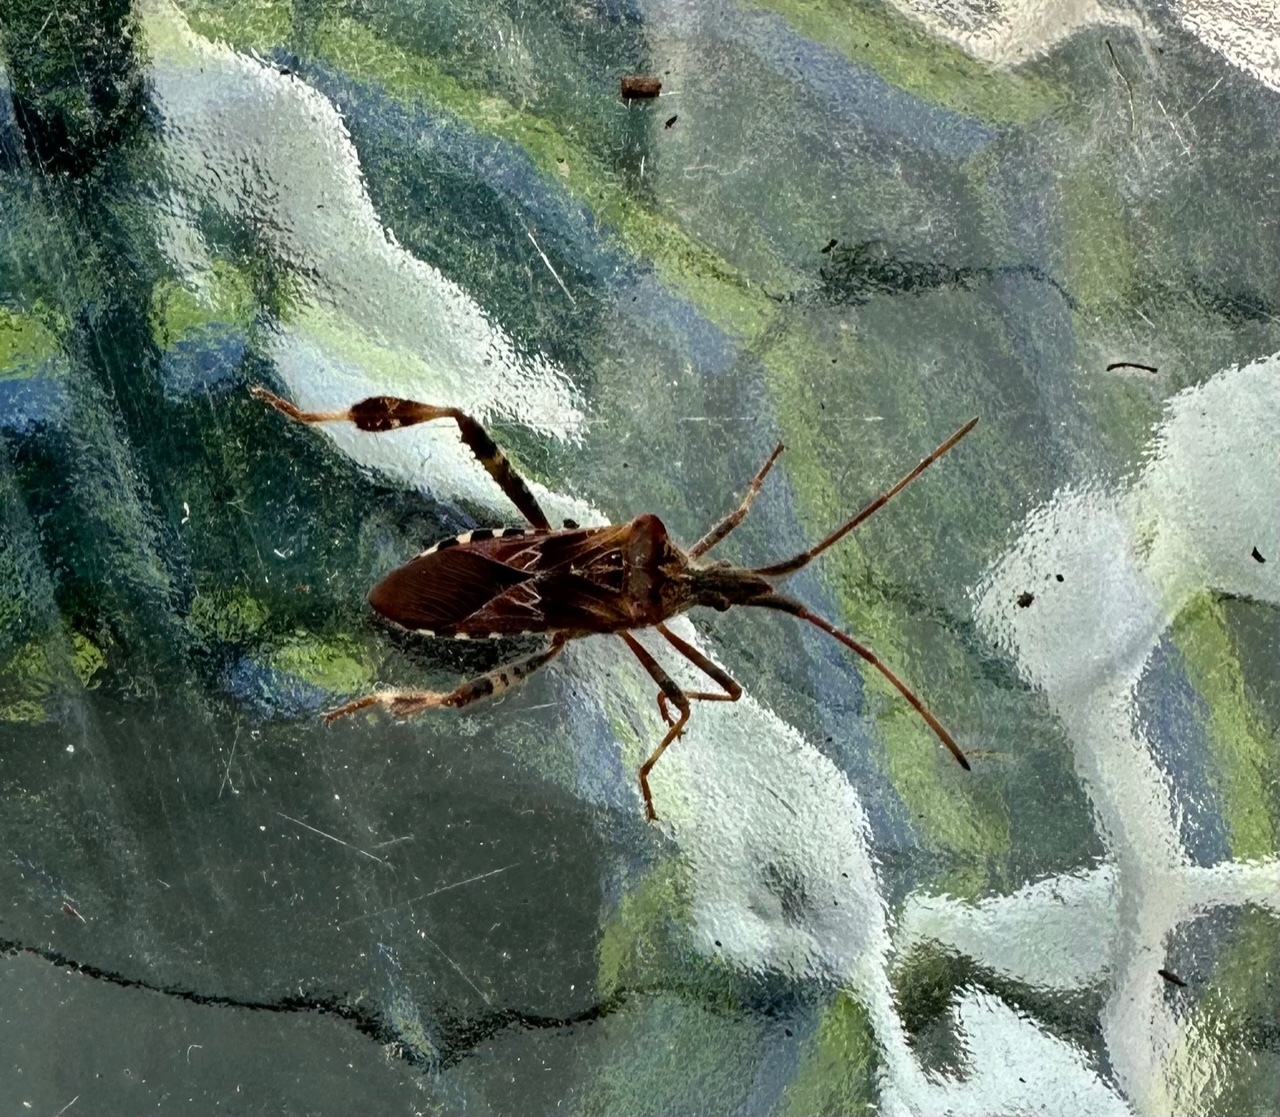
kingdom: Animalia
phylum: Arthropoda
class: Insecta
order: Hemiptera
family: Coreidae
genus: Leptoglossus
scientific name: Leptoglossus occidentalis
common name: Western conifer-seed bug
